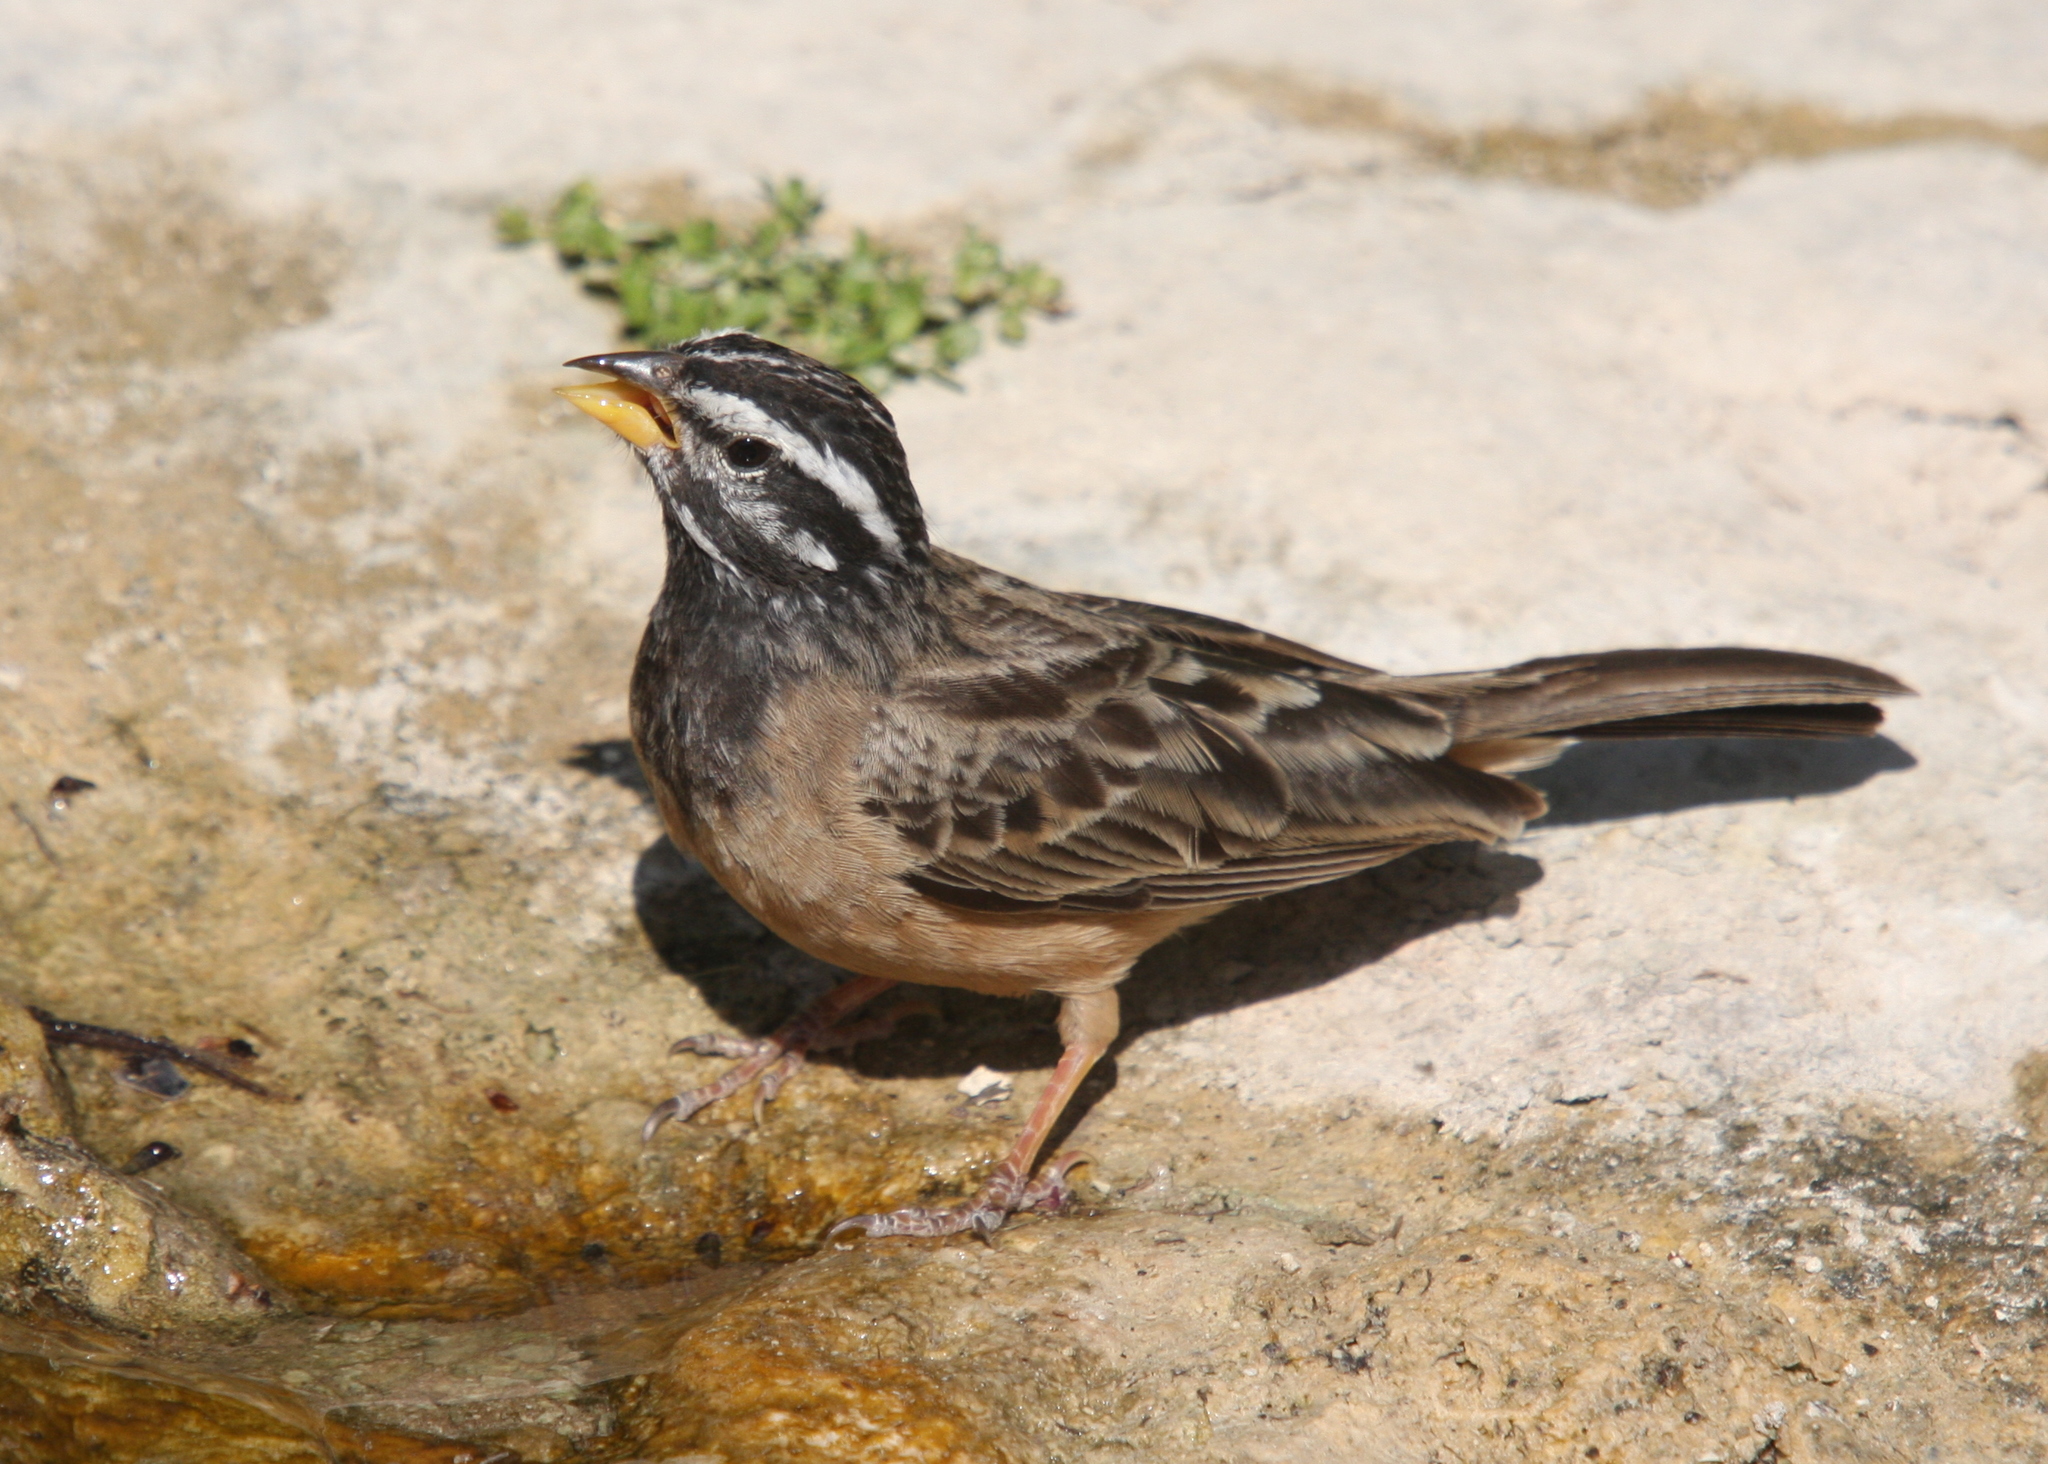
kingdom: Animalia
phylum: Chordata
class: Aves
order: Passeriformes
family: Emberizidae
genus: Emberiza
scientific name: Emberiza tahapisi
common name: Cinnamon-breasted bunting
